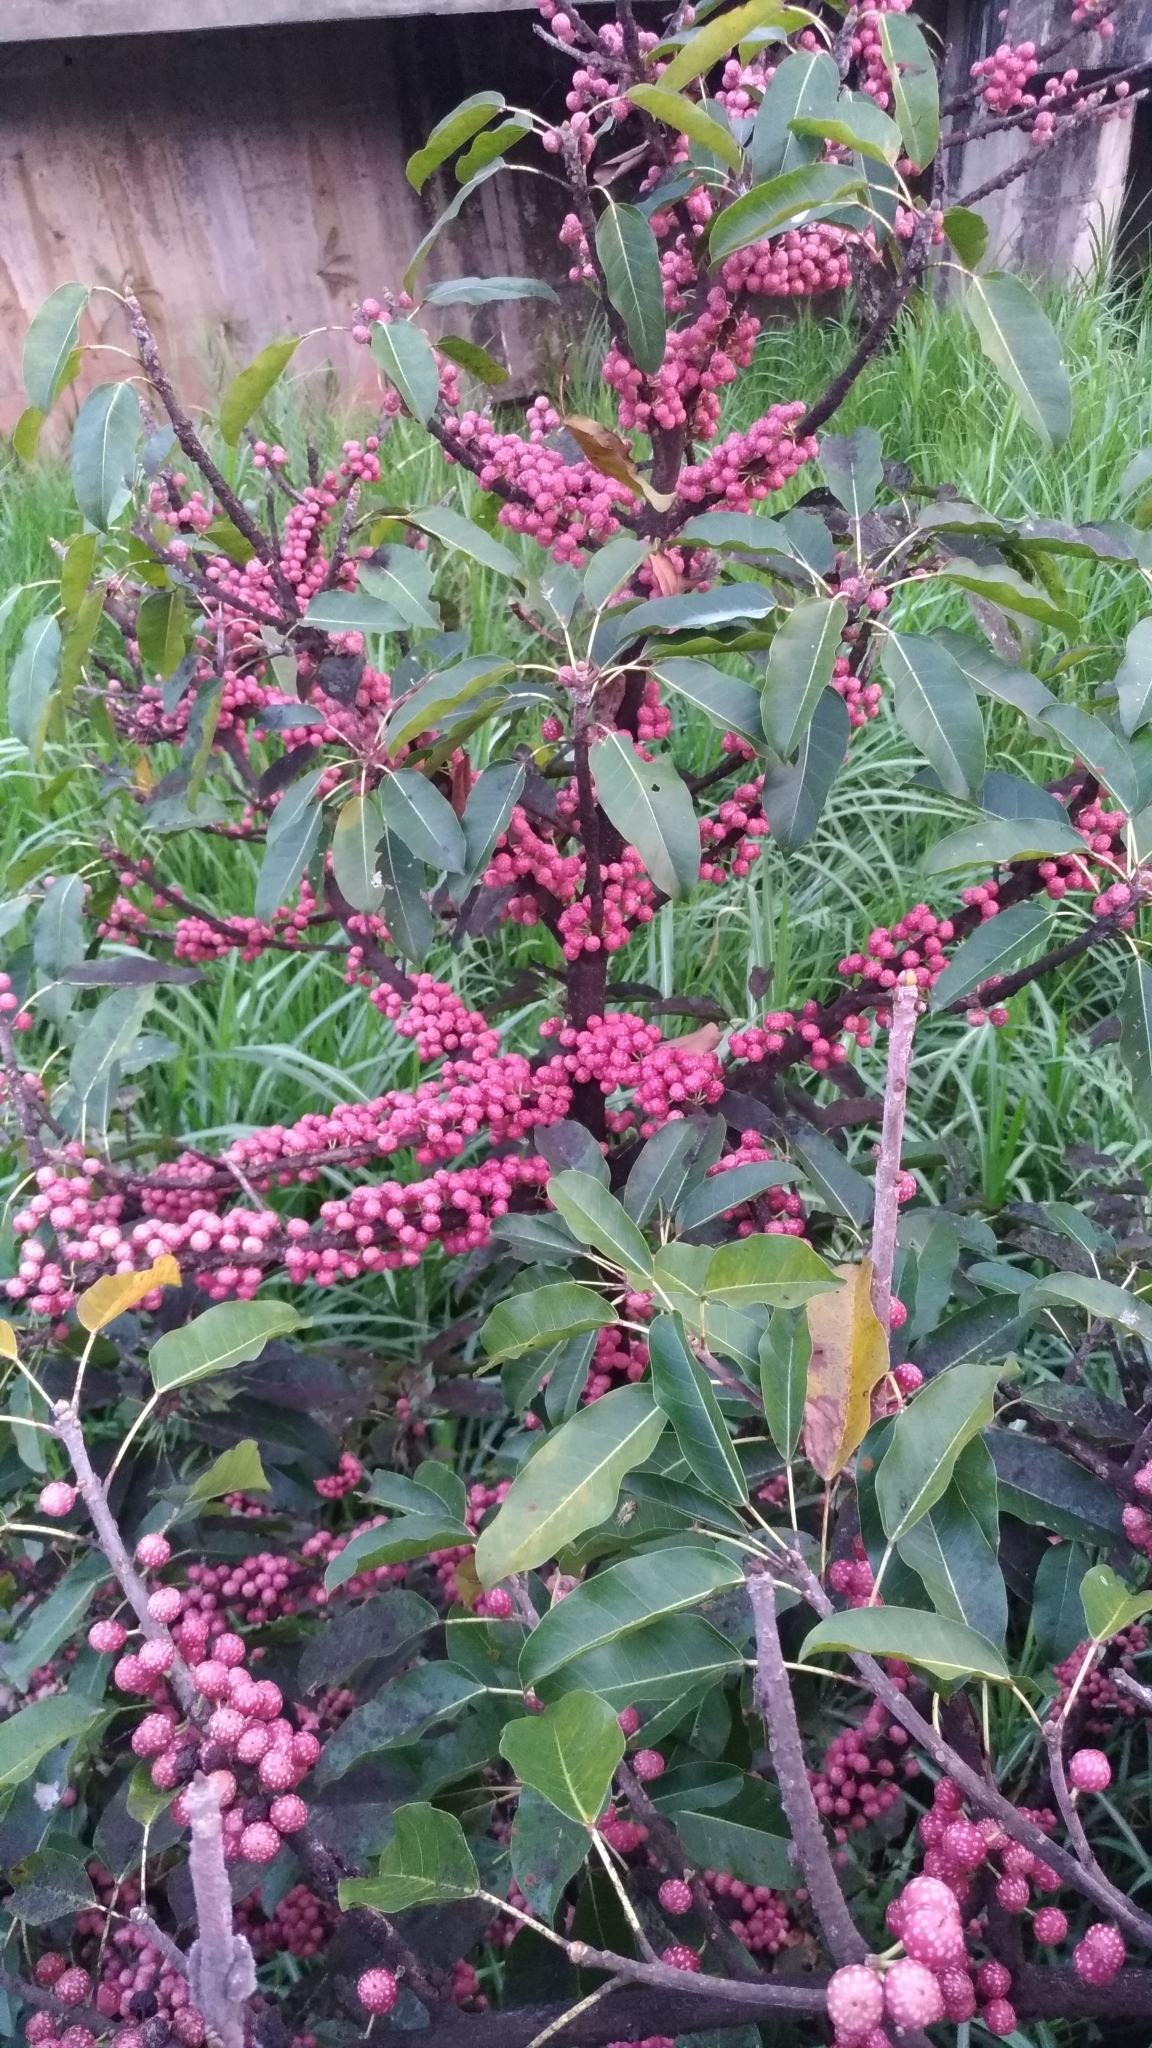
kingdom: Plantae
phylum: Tracheophyta
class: Magnoliopsida
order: Rosales
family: Moraceae
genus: Ficus
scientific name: Ficus subpisocarpa
